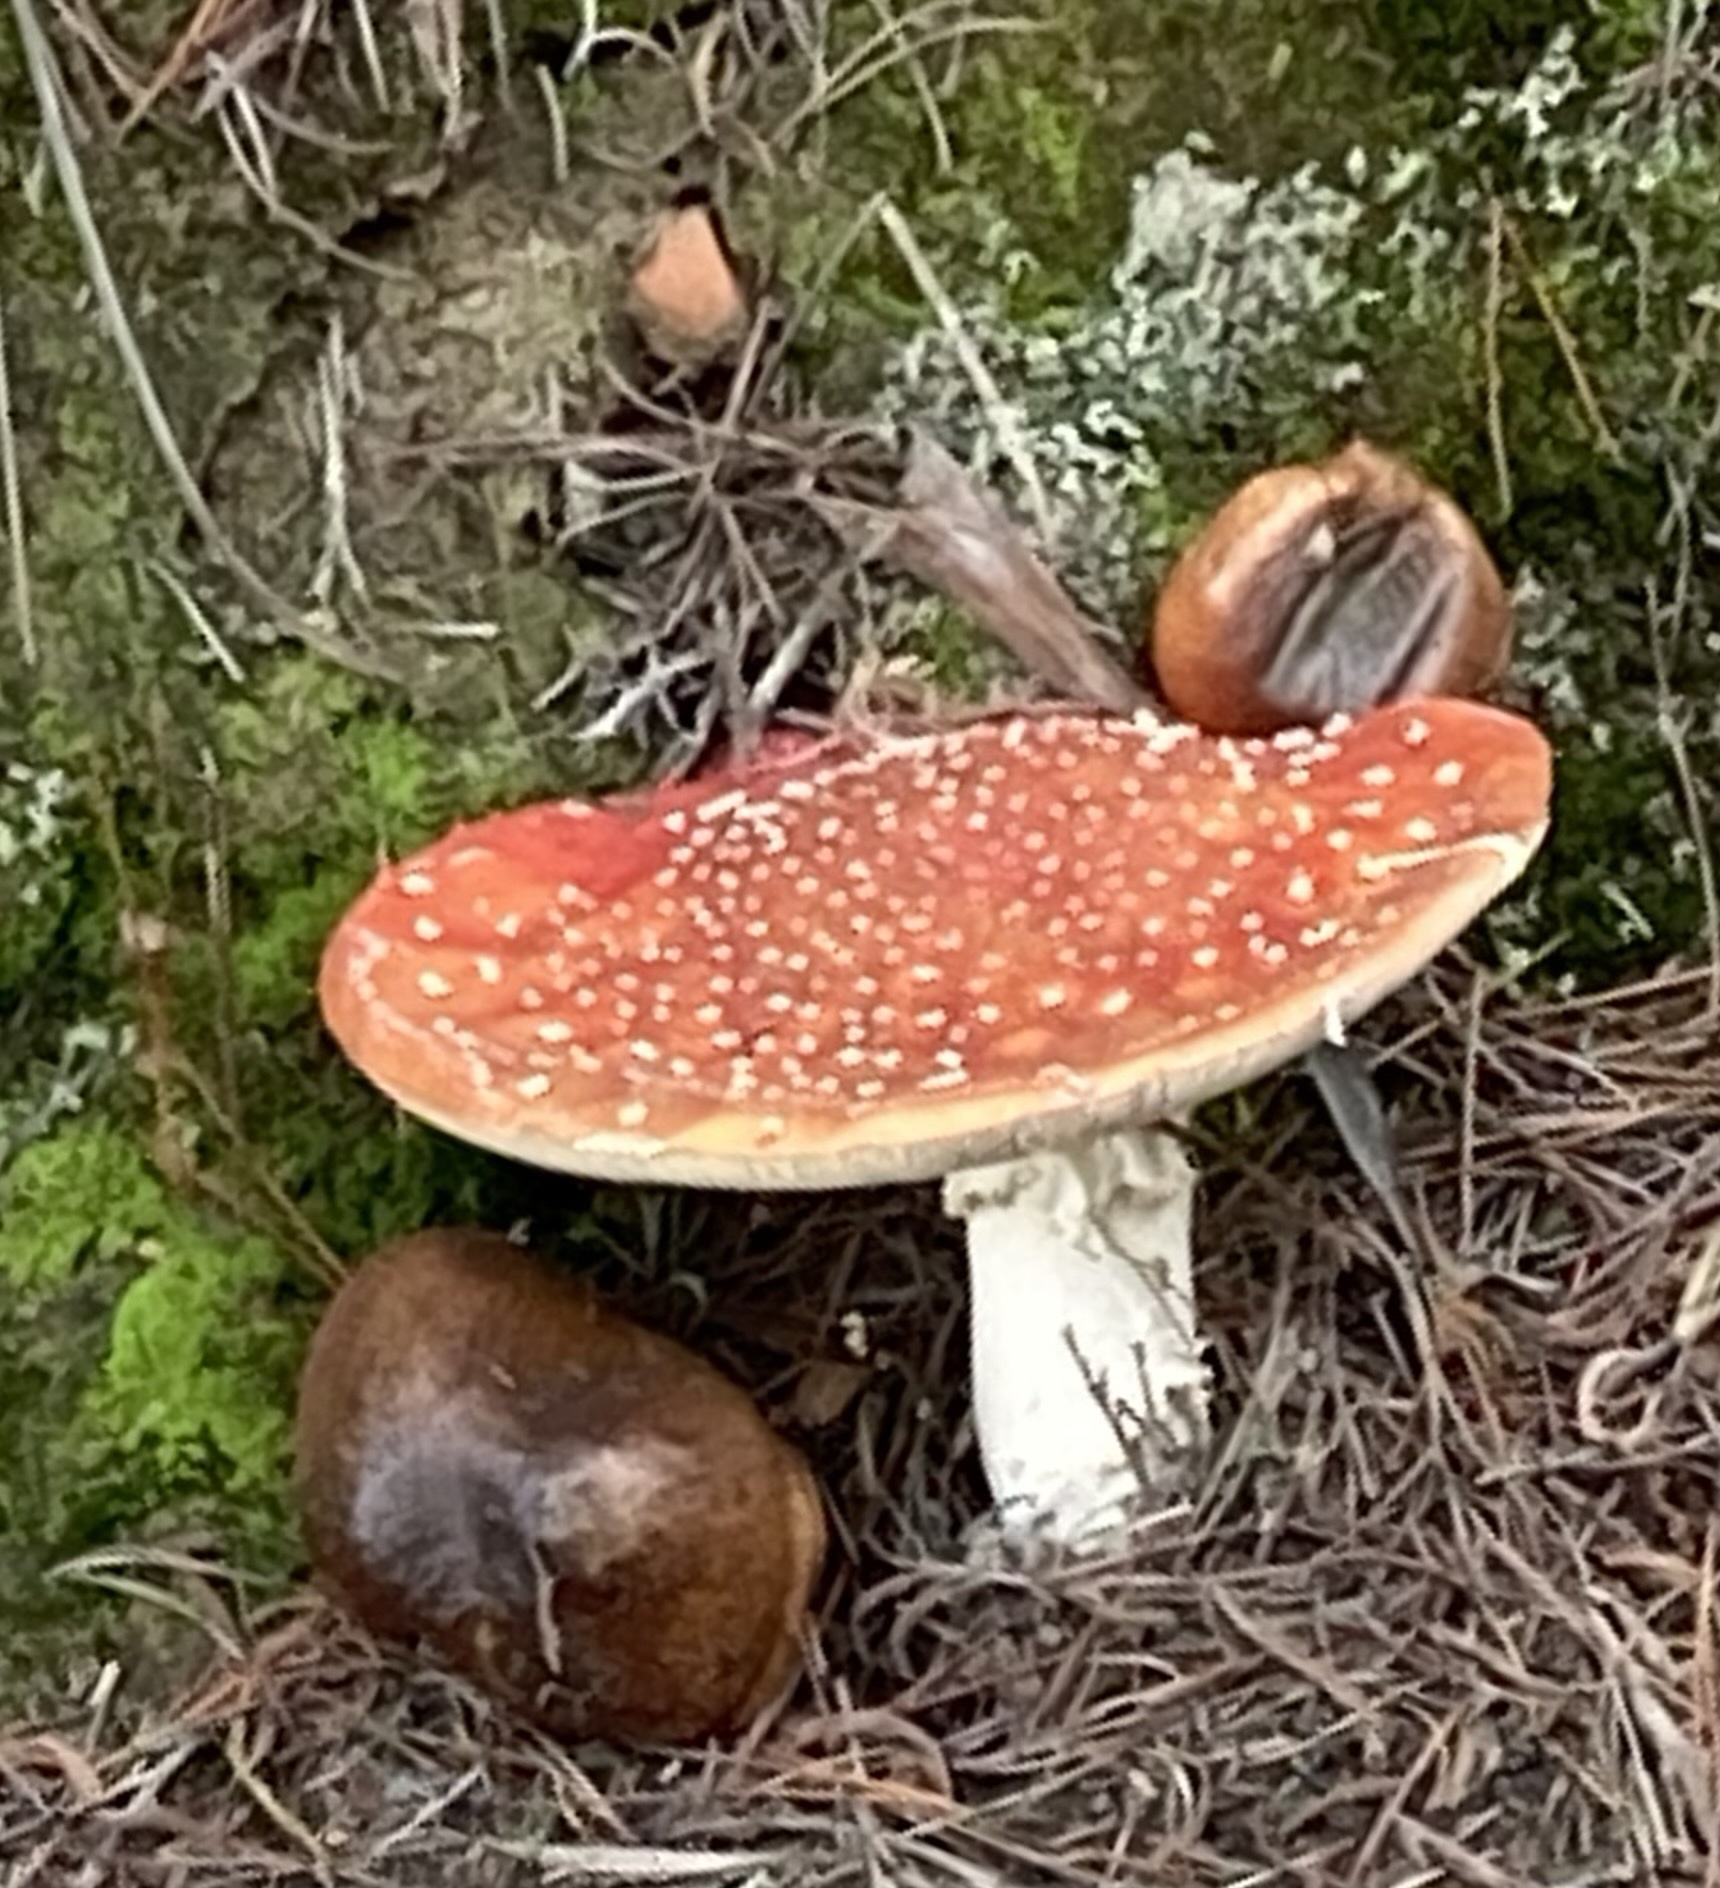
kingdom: Fungi
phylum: Basidiomycota
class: Agaricomycetes
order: Agaricales
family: Amanitaceae
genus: Amanita
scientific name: Amanita muscaria
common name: Fly agaric
